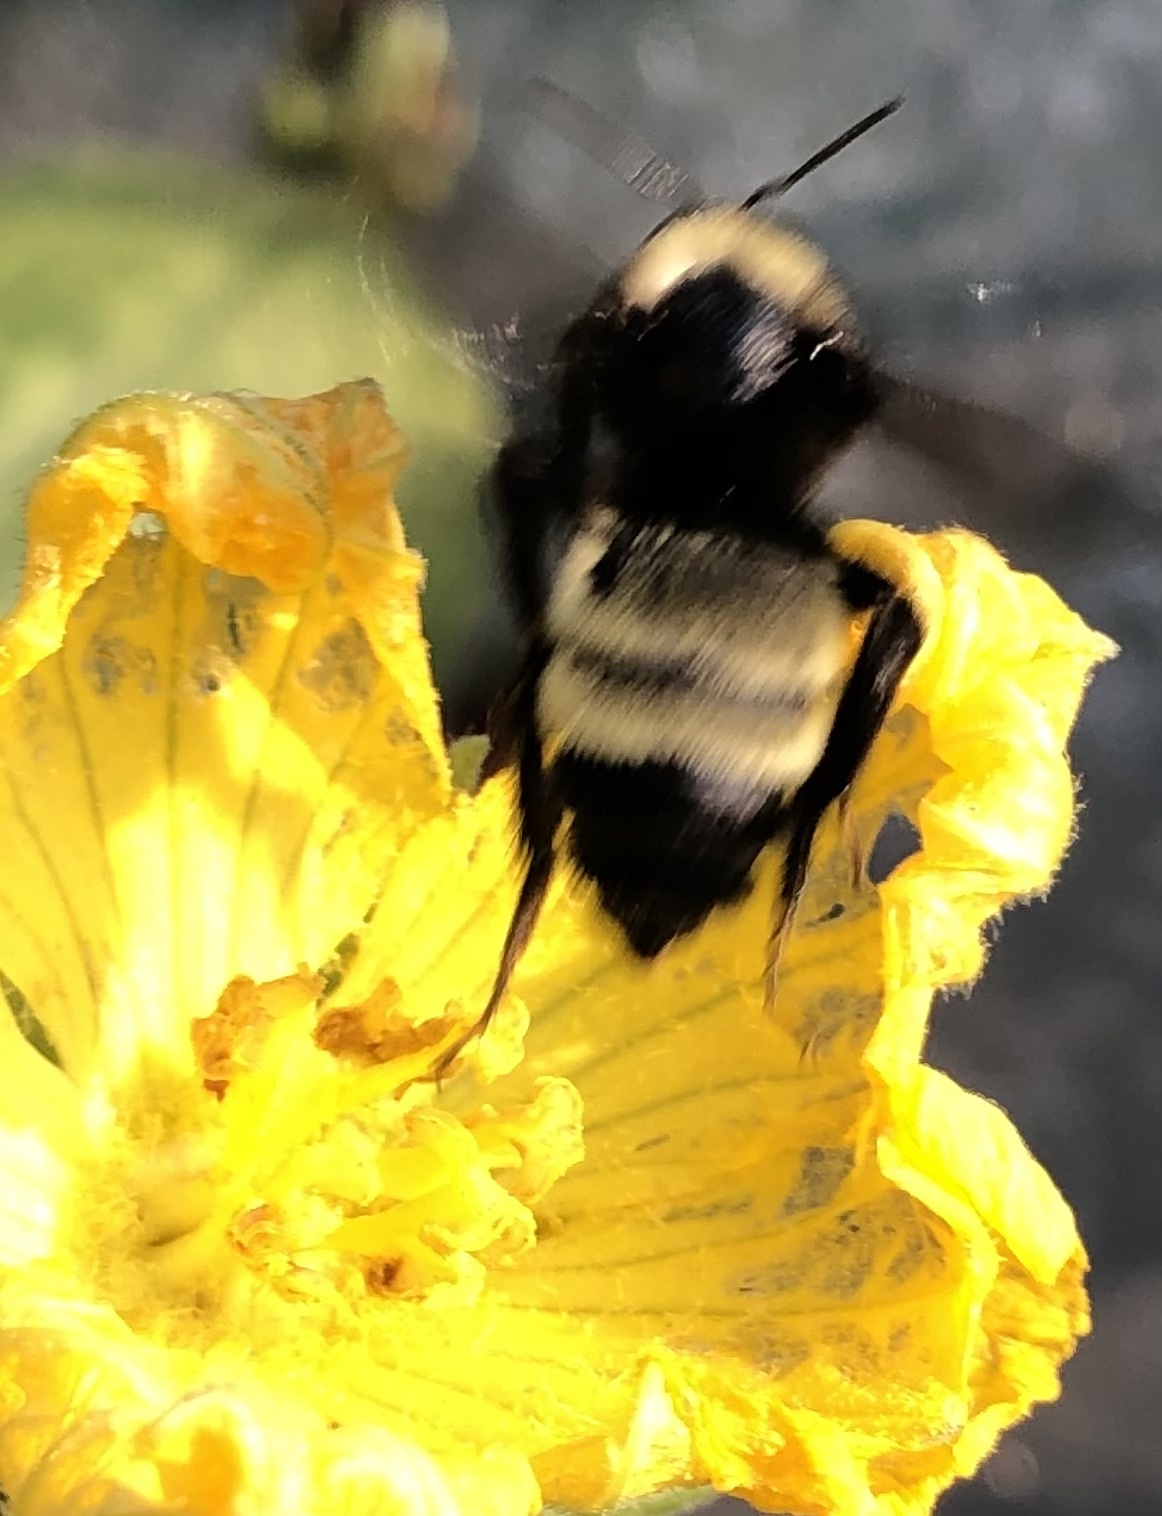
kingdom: Animalia
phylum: Arthropoda
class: Insecta
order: Hymenoptera
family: Apidae
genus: Bombus
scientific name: Bombus pensylvanicus
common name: Bumble bee
